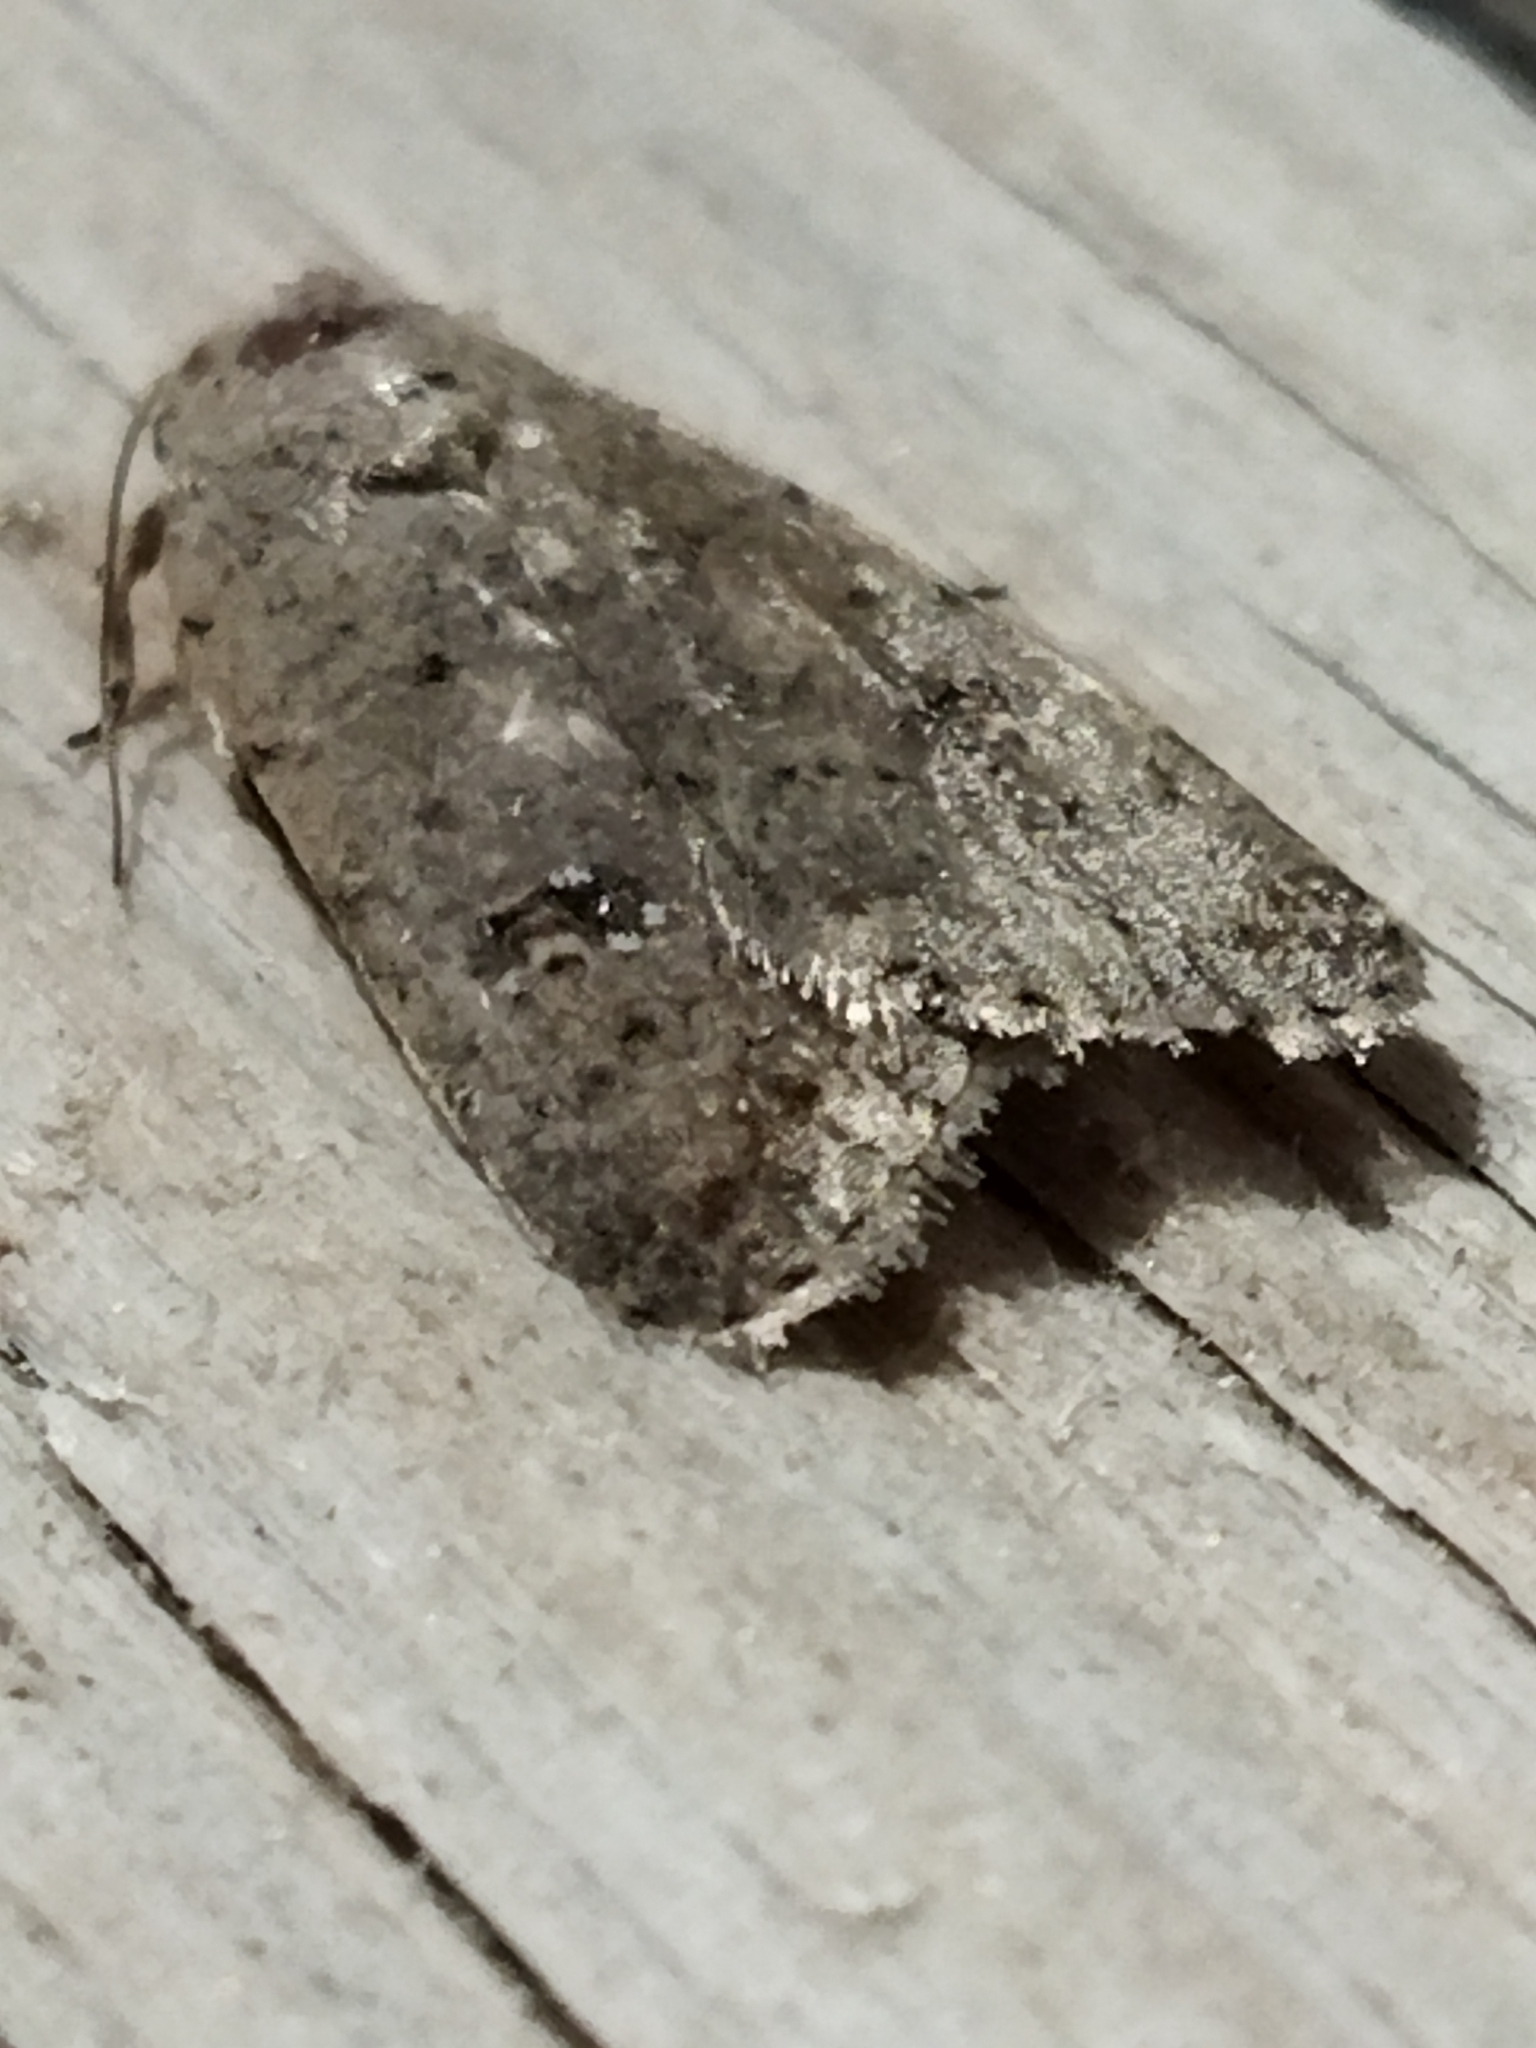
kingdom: Animalia
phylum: Arthropoda
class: Insecta
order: Lepidoptera
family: Noctuidae
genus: Caradrina
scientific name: Caradrina clavipalpis
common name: Pale mottled willow
